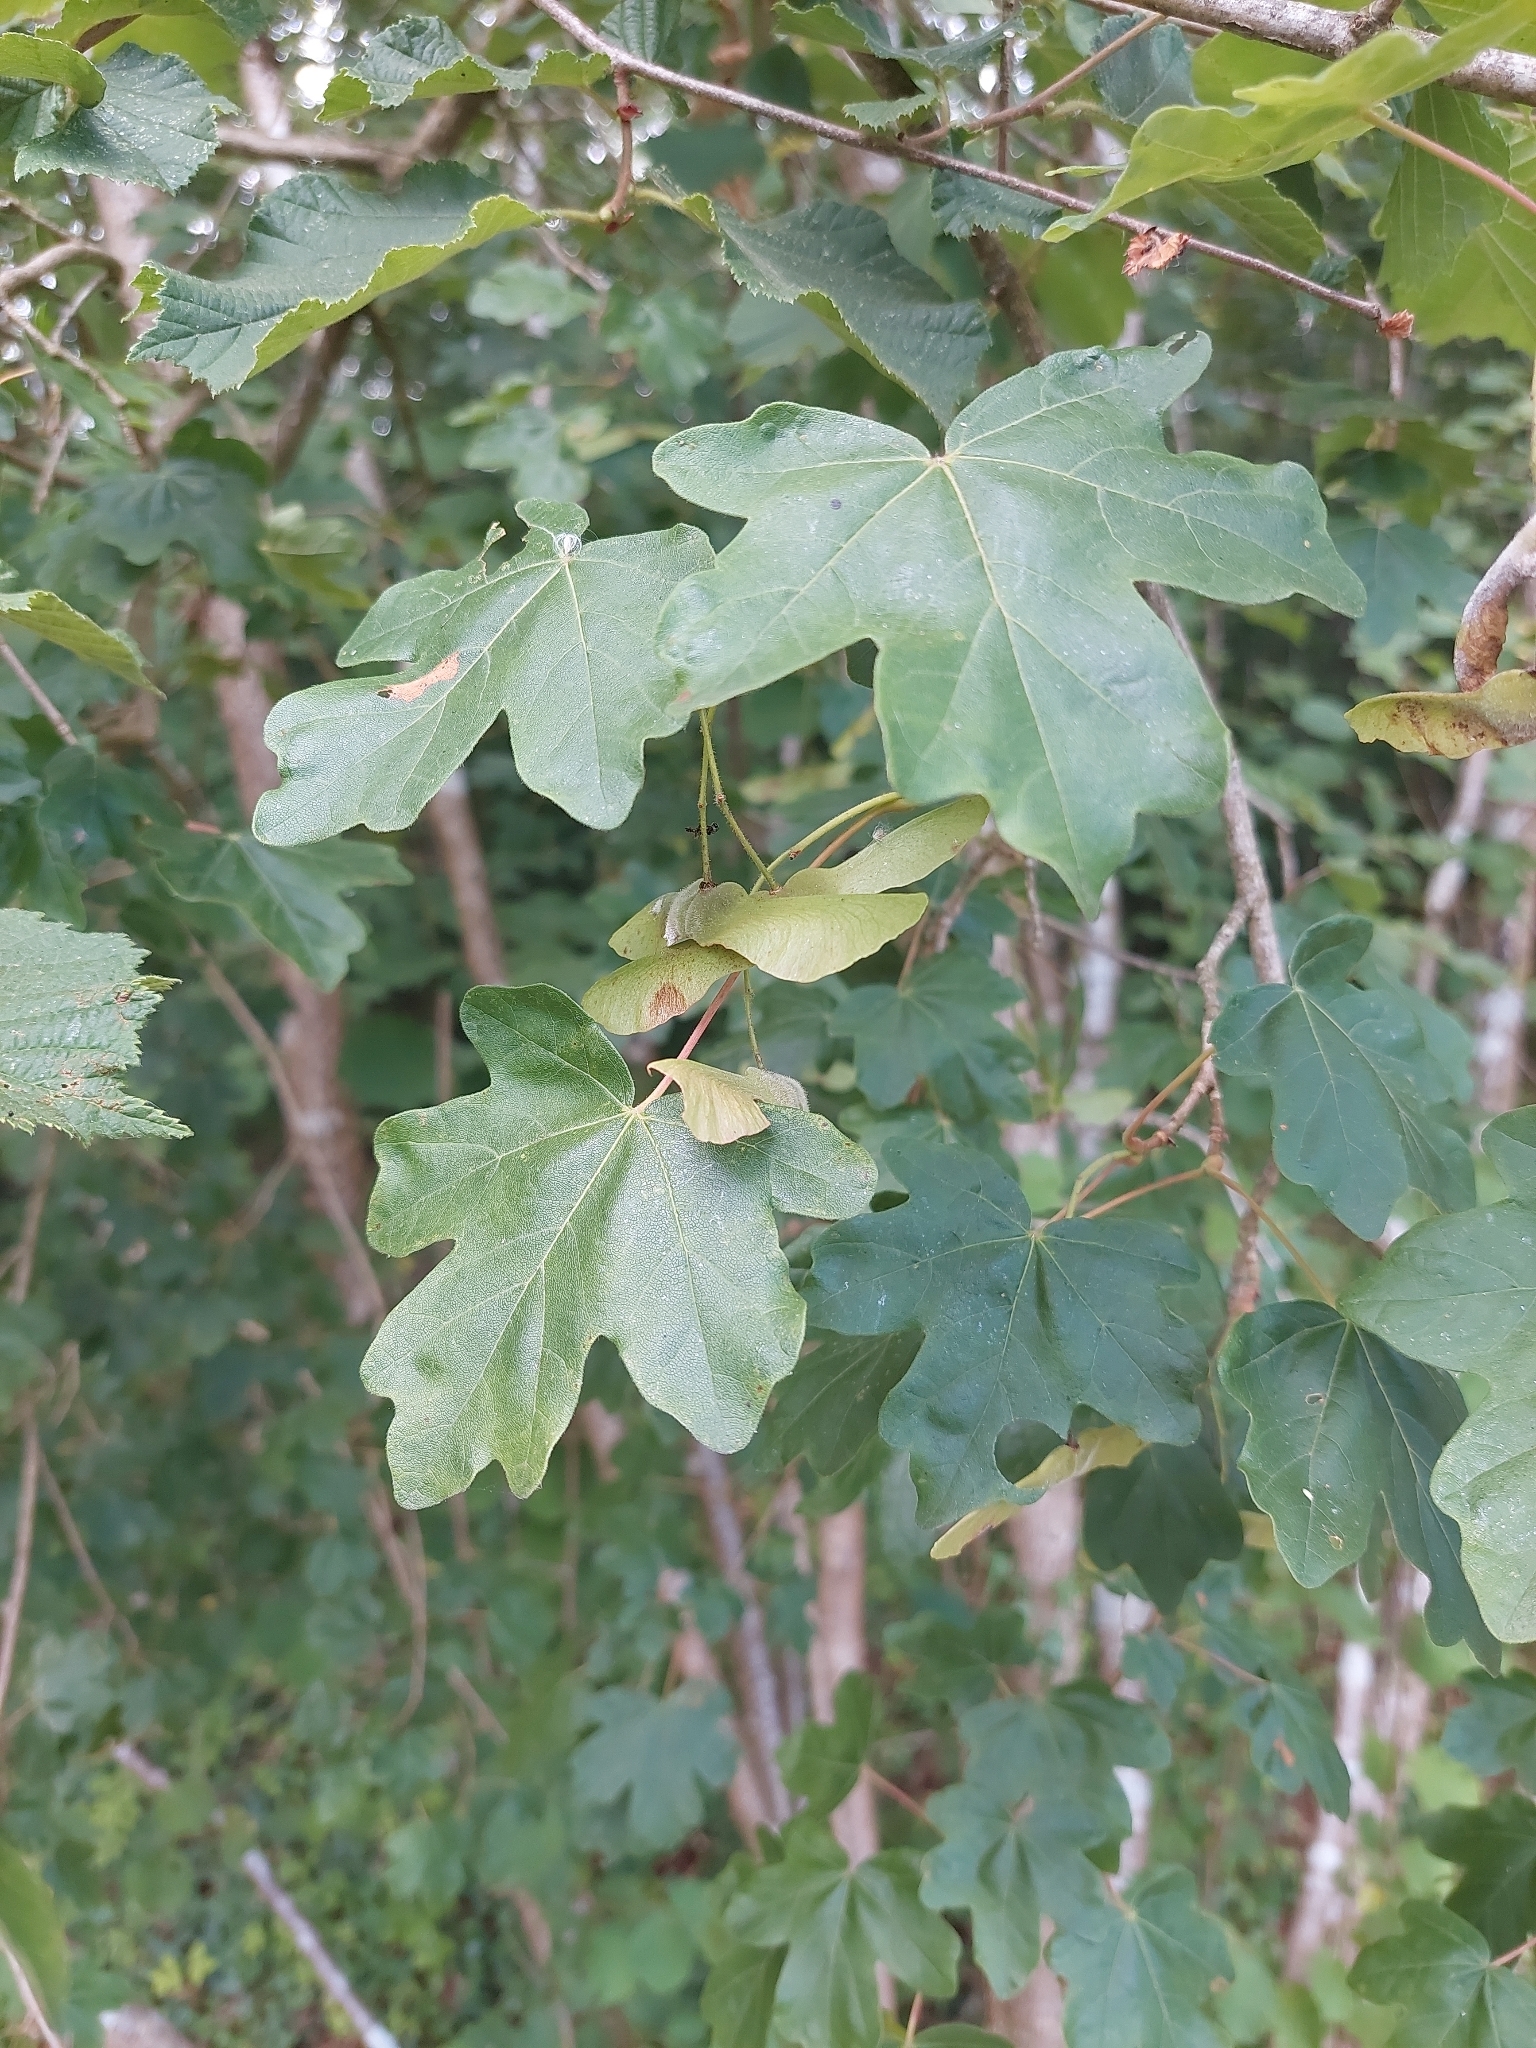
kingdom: Plantae
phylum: Tracheophyta
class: Magnoliopsida
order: Sapindales
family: Sapindaceae
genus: Acer
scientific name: Acer campestre
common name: Field maple
